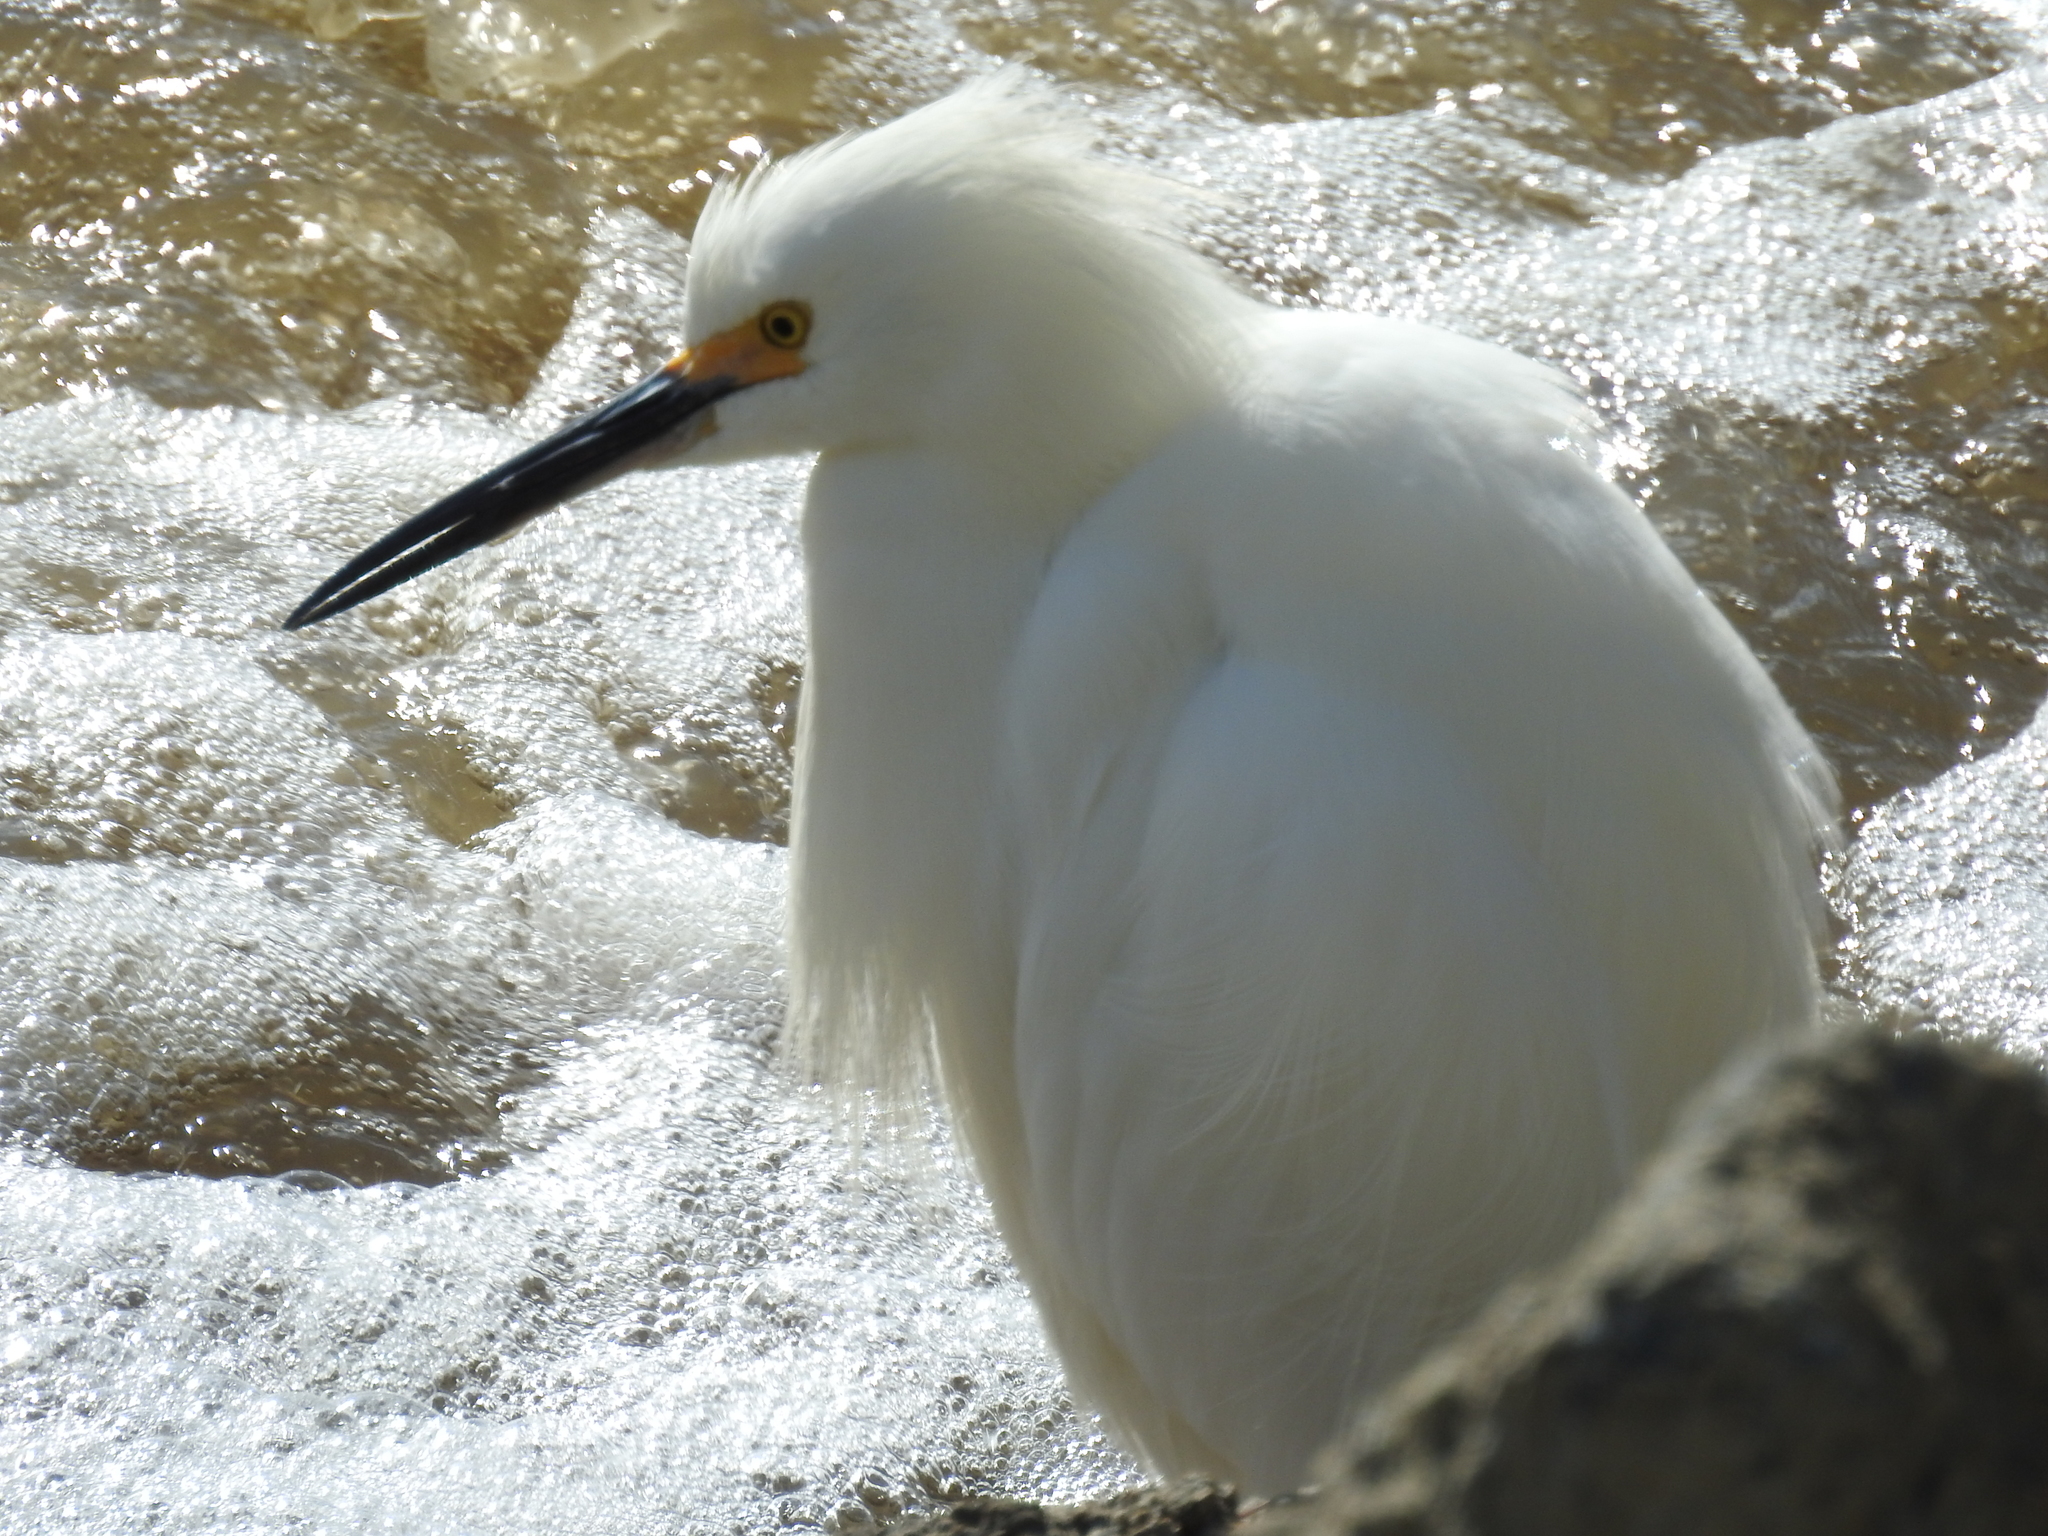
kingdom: Animalia
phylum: Chordata
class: Aves
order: Pelecaniformes
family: Ardeidae
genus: Egretta
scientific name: Egretta thula
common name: Snowy egret
